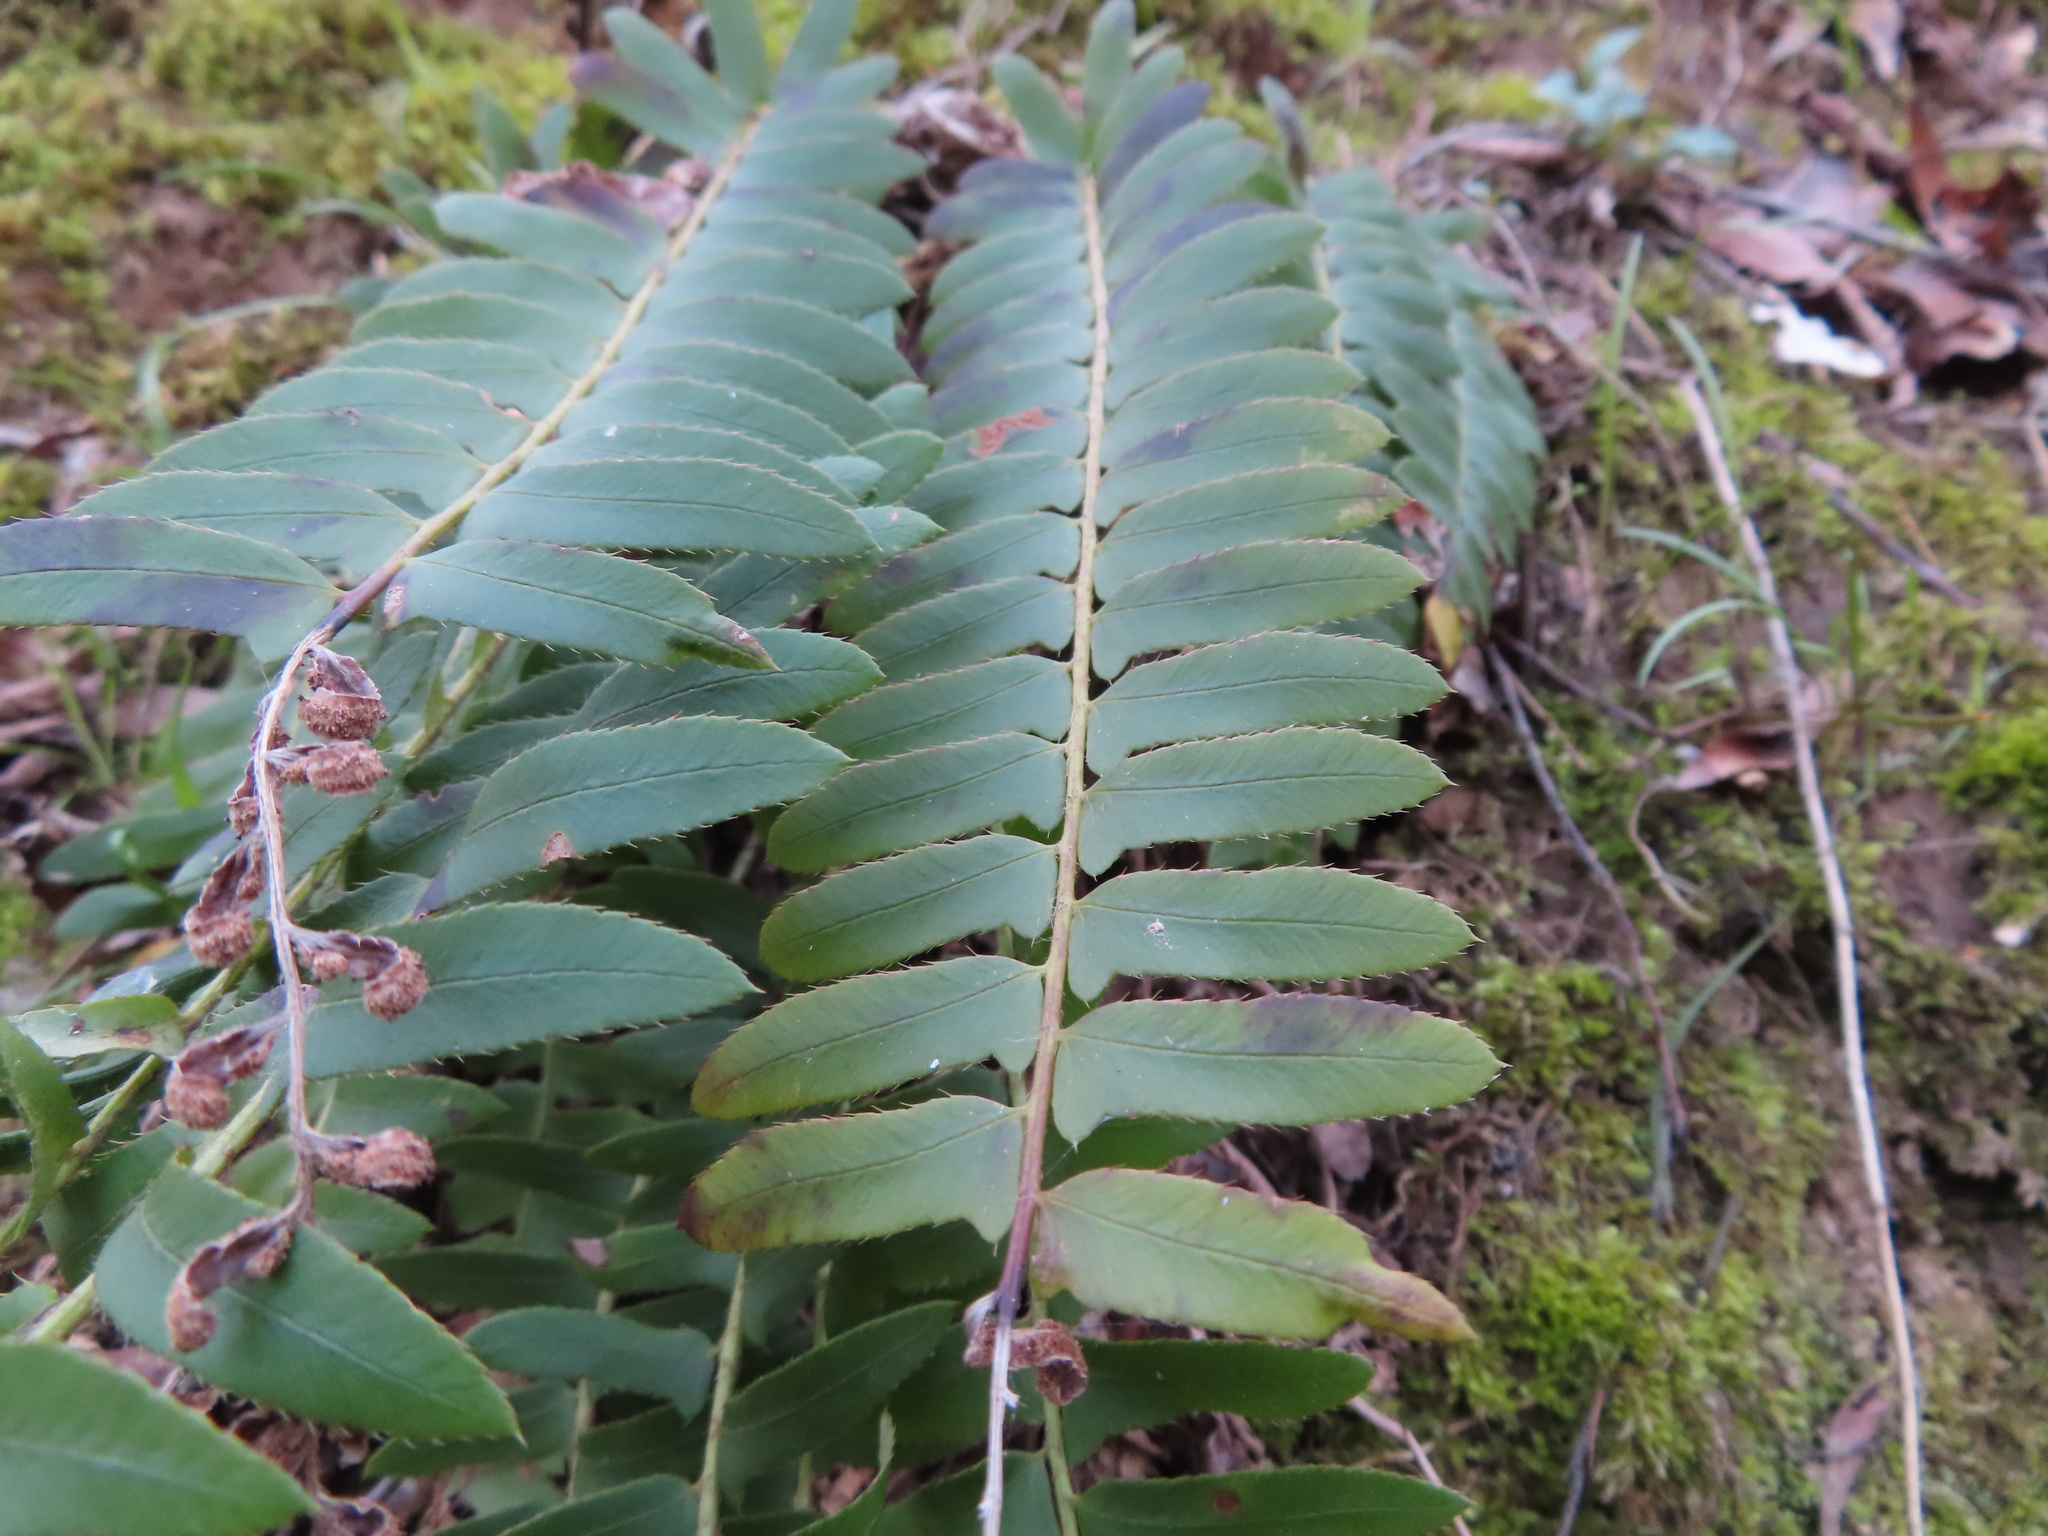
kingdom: Plantae
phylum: Tracheophyta
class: Polypodiopsida
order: Polypodiales
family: Dryopteridaceae
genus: Polystichum
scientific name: Polystichum acrostichoides
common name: Christmas fern
